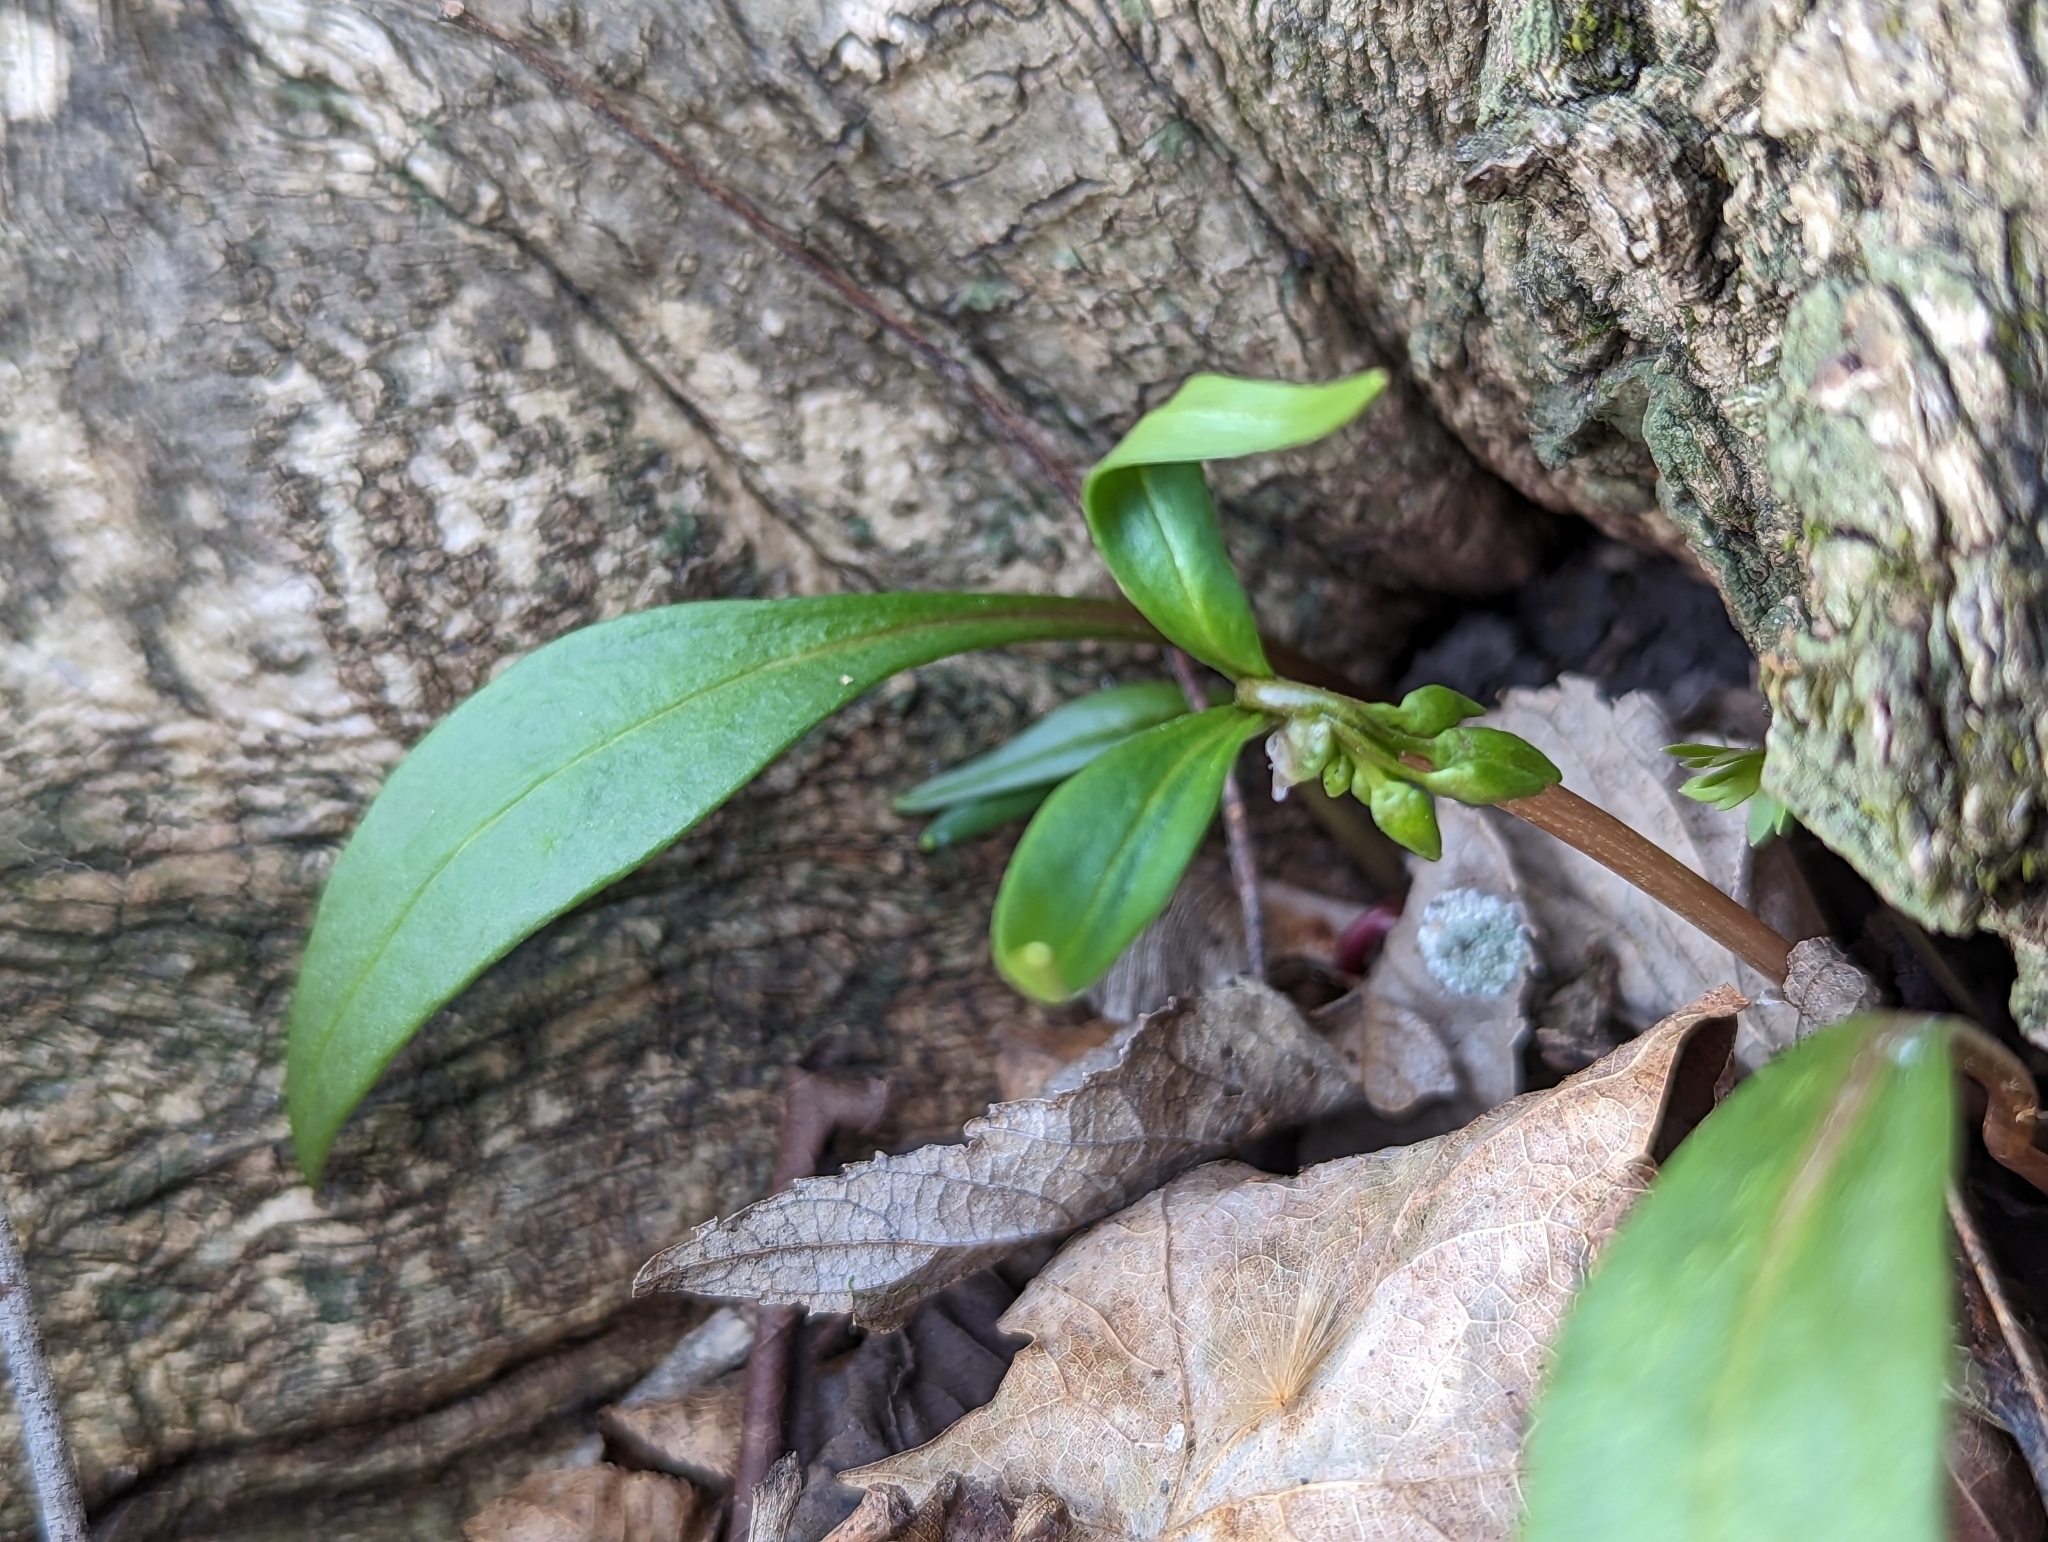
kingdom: Plantae
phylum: Tracheophyta
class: Magnoliopsida
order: Caryophyllales
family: Montiaceae
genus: Claytonia
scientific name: Claytonia virginica
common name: Virginia springbeauty
